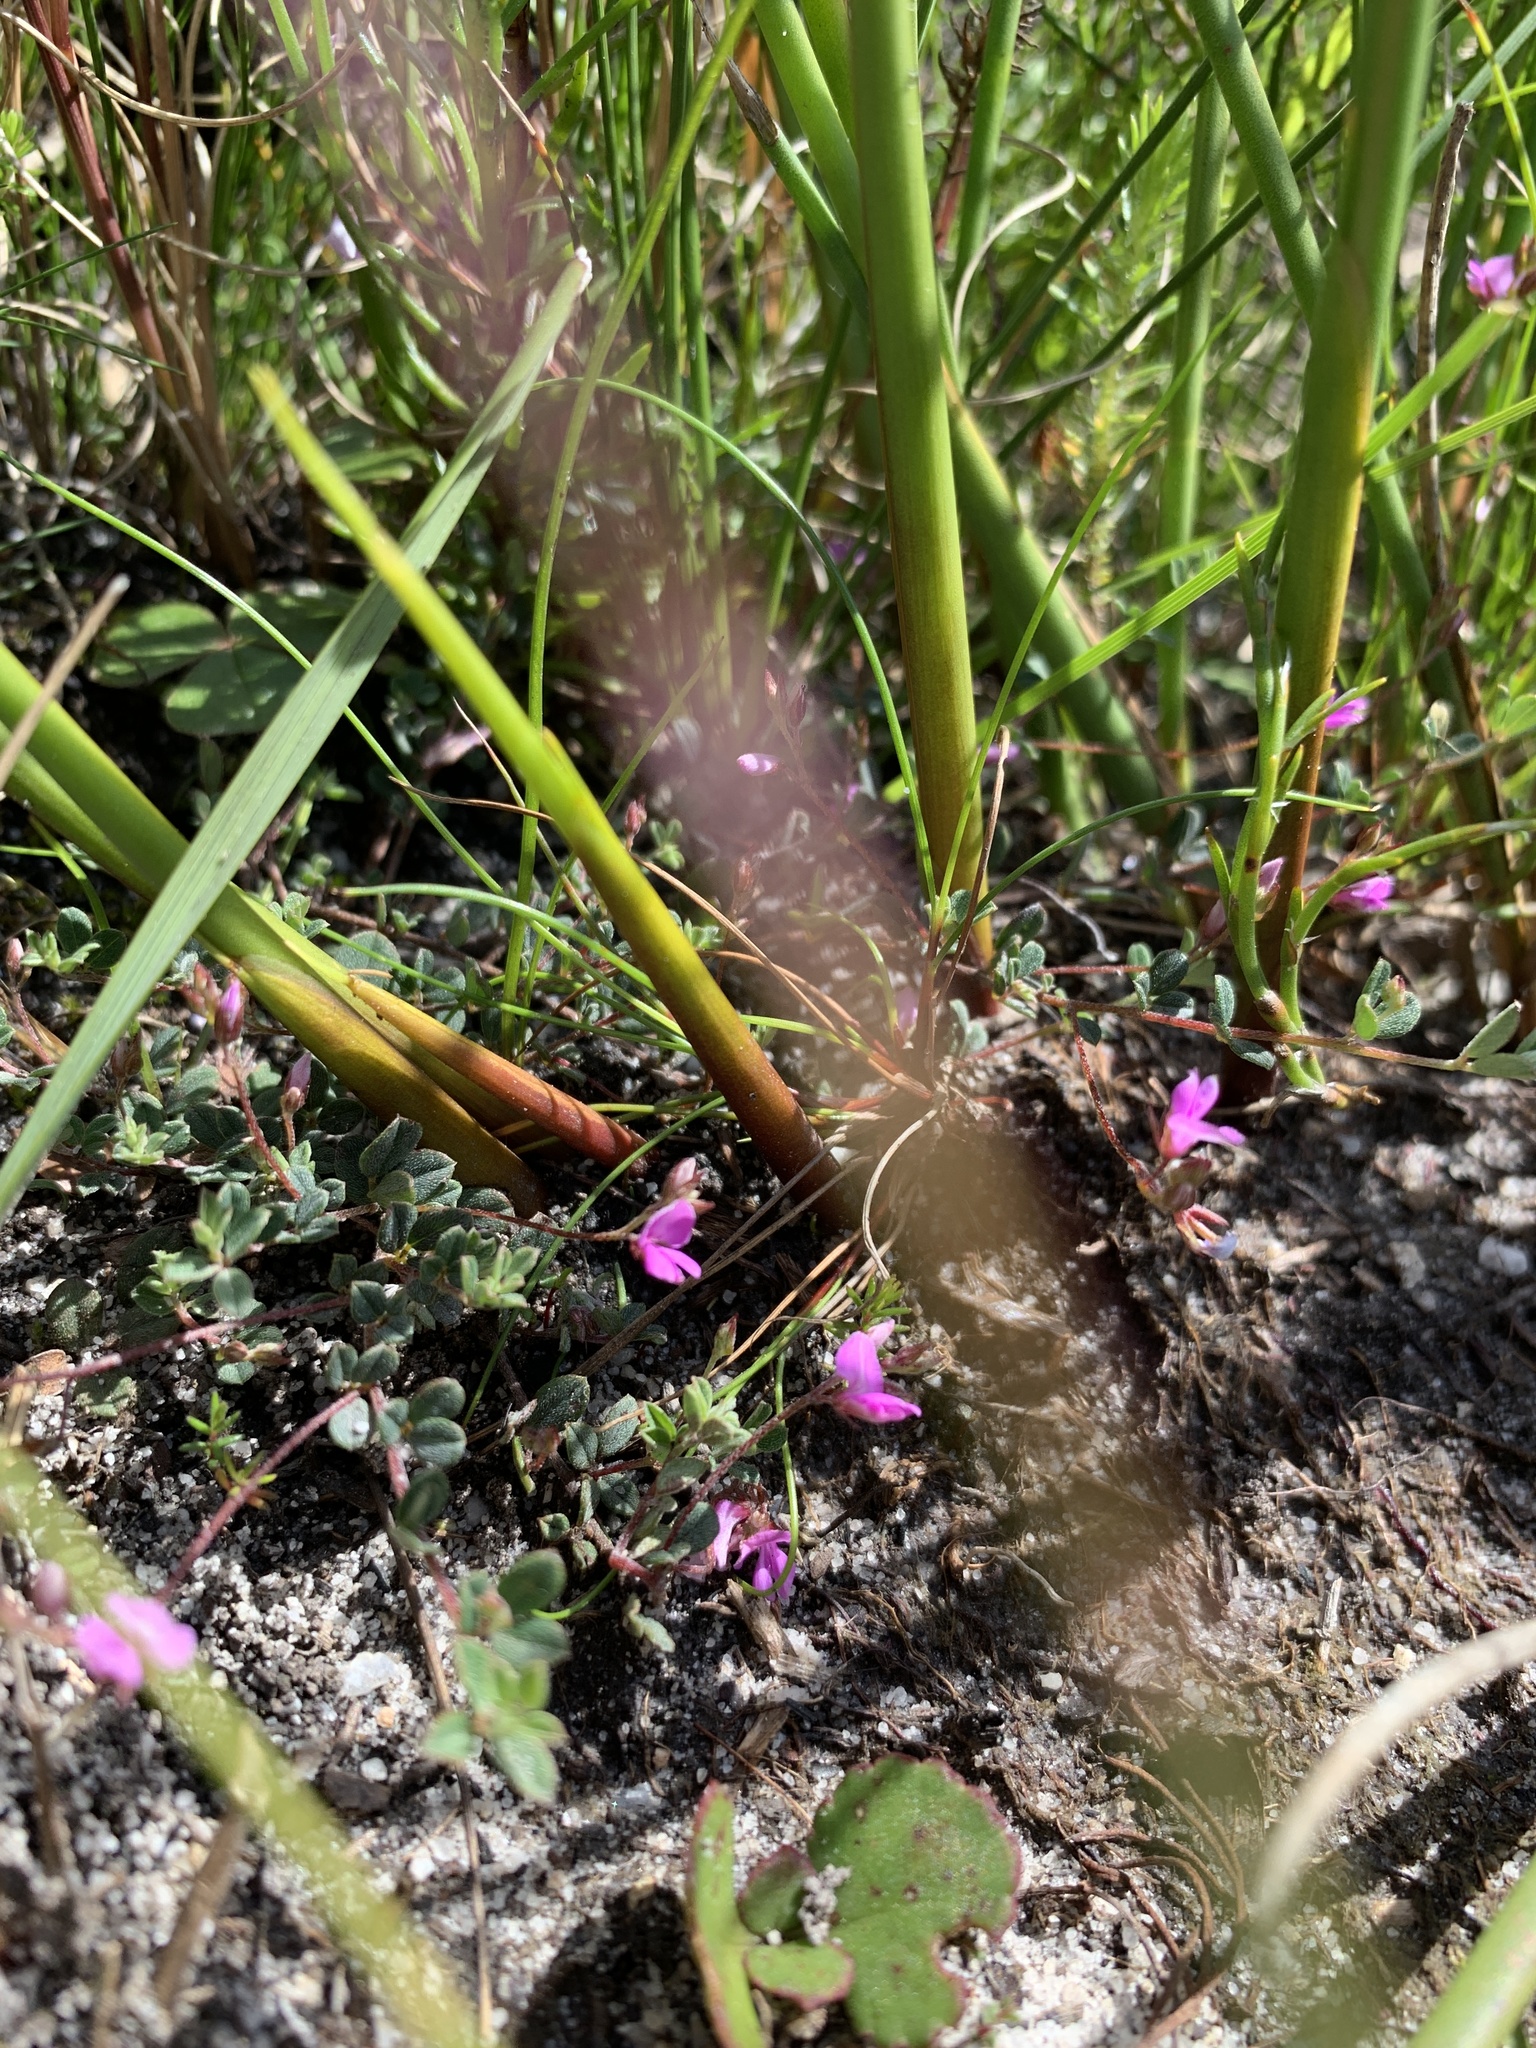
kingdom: Plantae
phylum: Tracheophyta
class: Magnoliopsida
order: Fabales
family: Fabaceae
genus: Indigofera
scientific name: Indigofera sarmentosa
